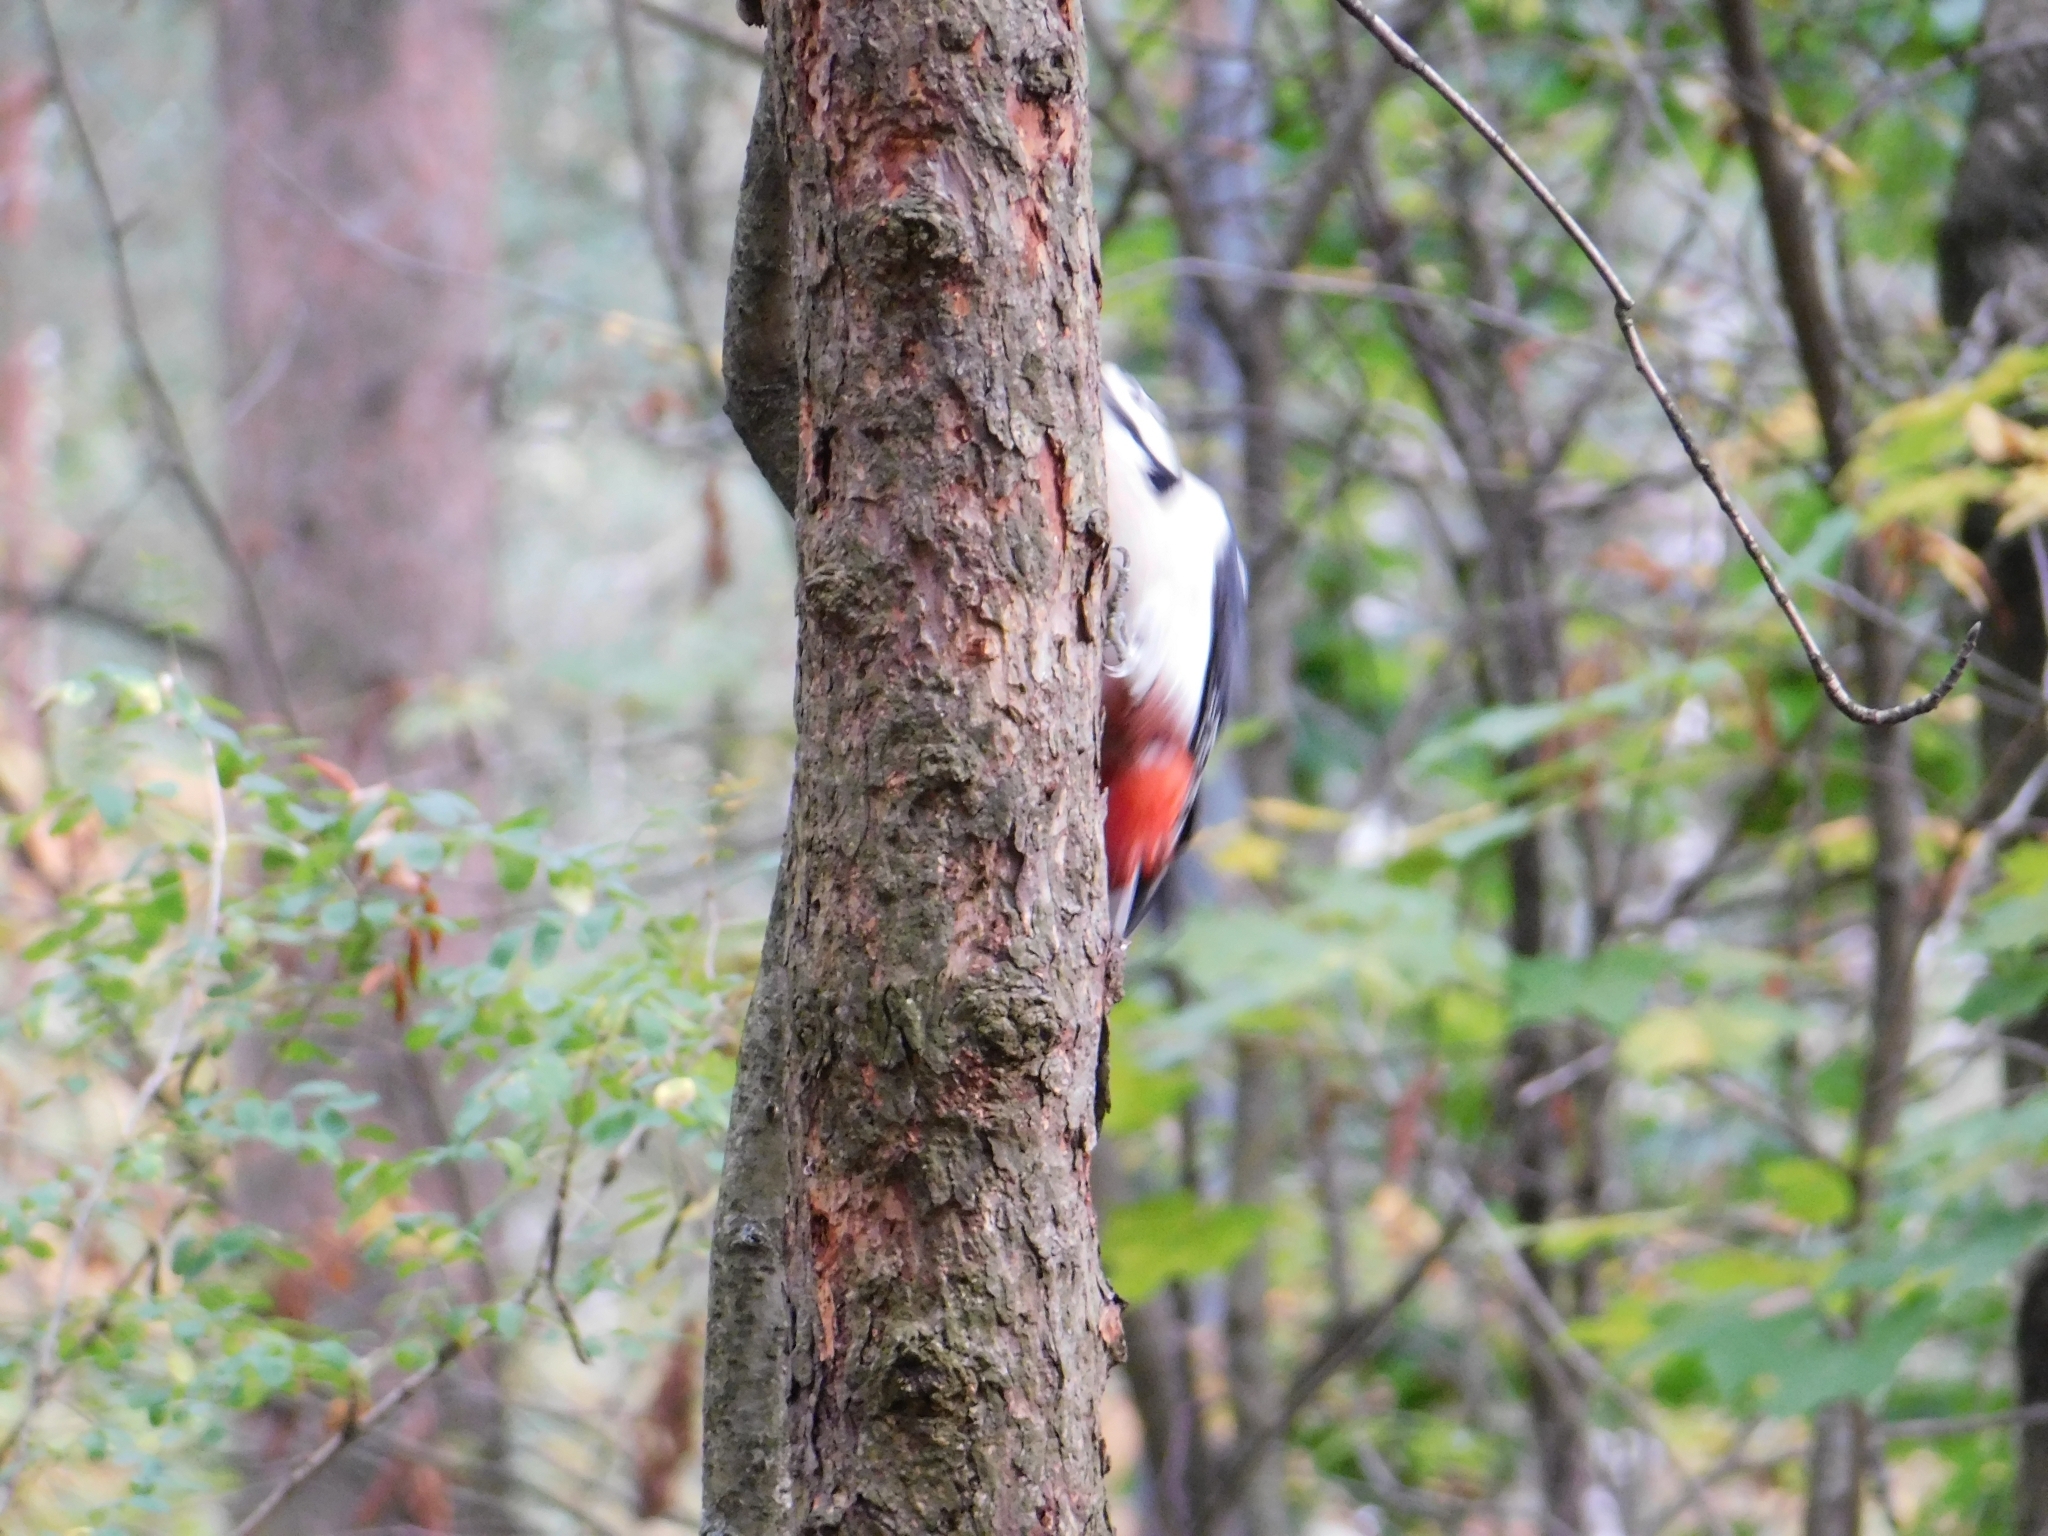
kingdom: Animalia
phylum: Chordata
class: Aves
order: Piciformes
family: Picidae
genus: Dendrocopos
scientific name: Dendrocopos major
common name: Great spotted woodpecker
